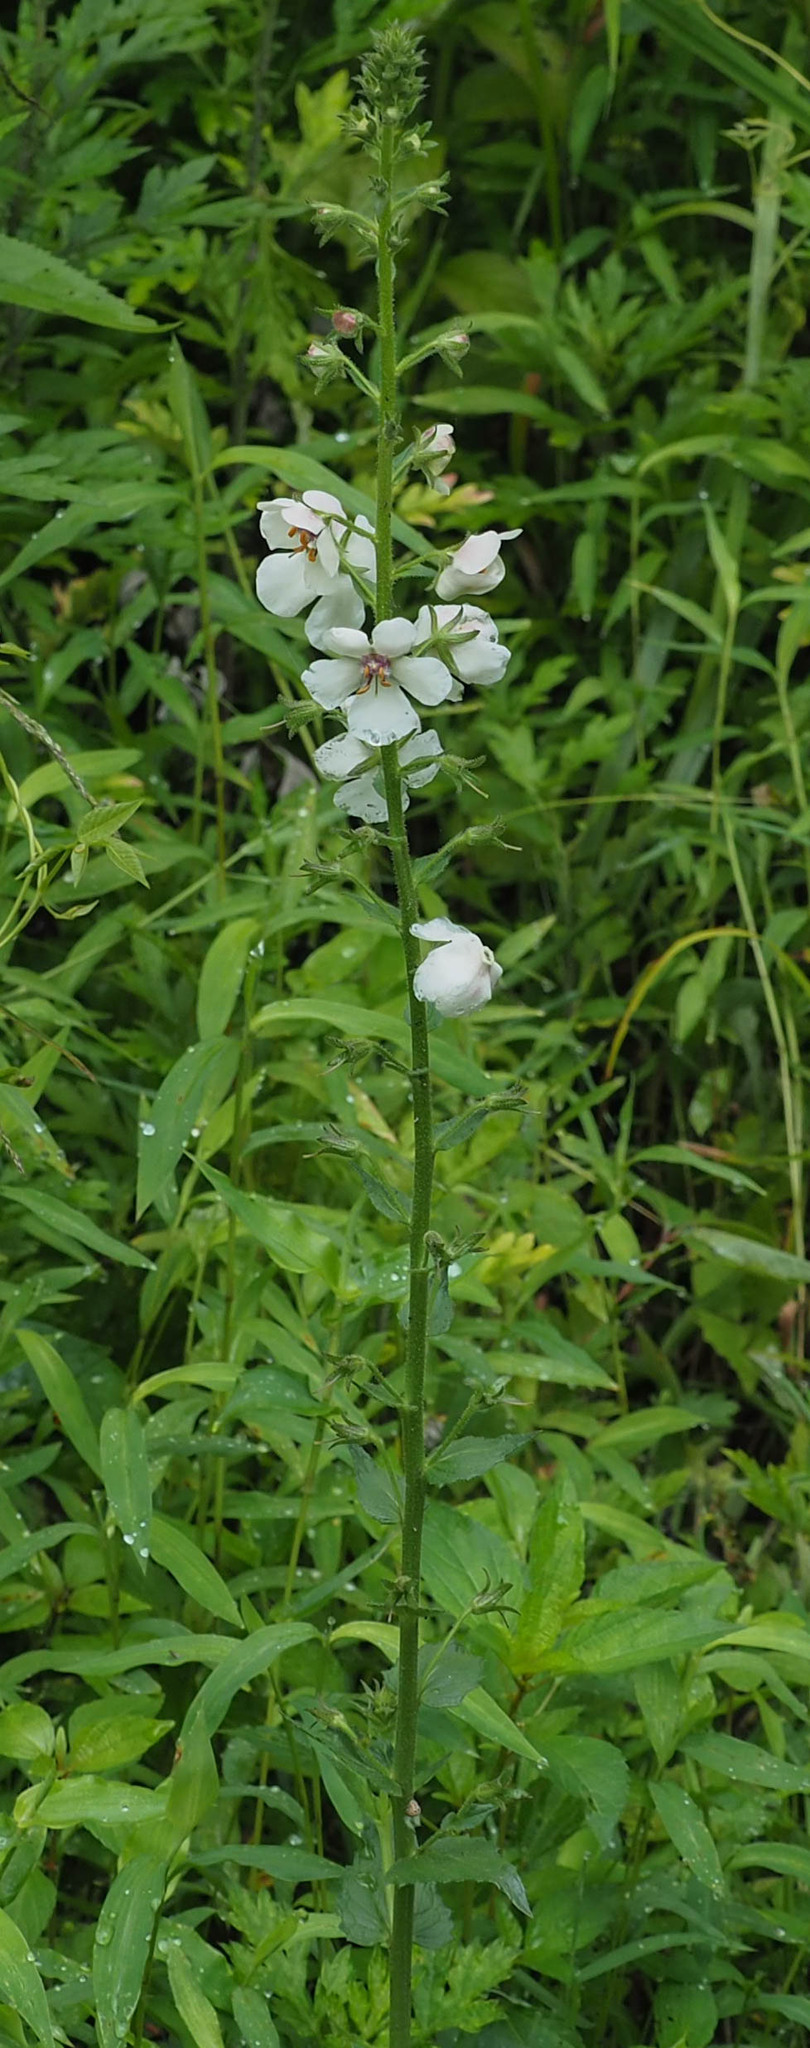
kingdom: Plantae
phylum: Tracheophyta
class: Magnoliopsida
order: Lamiales
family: Scrophulariaceae
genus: Verbascum
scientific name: Verbascum blattaria
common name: Moth mullein
